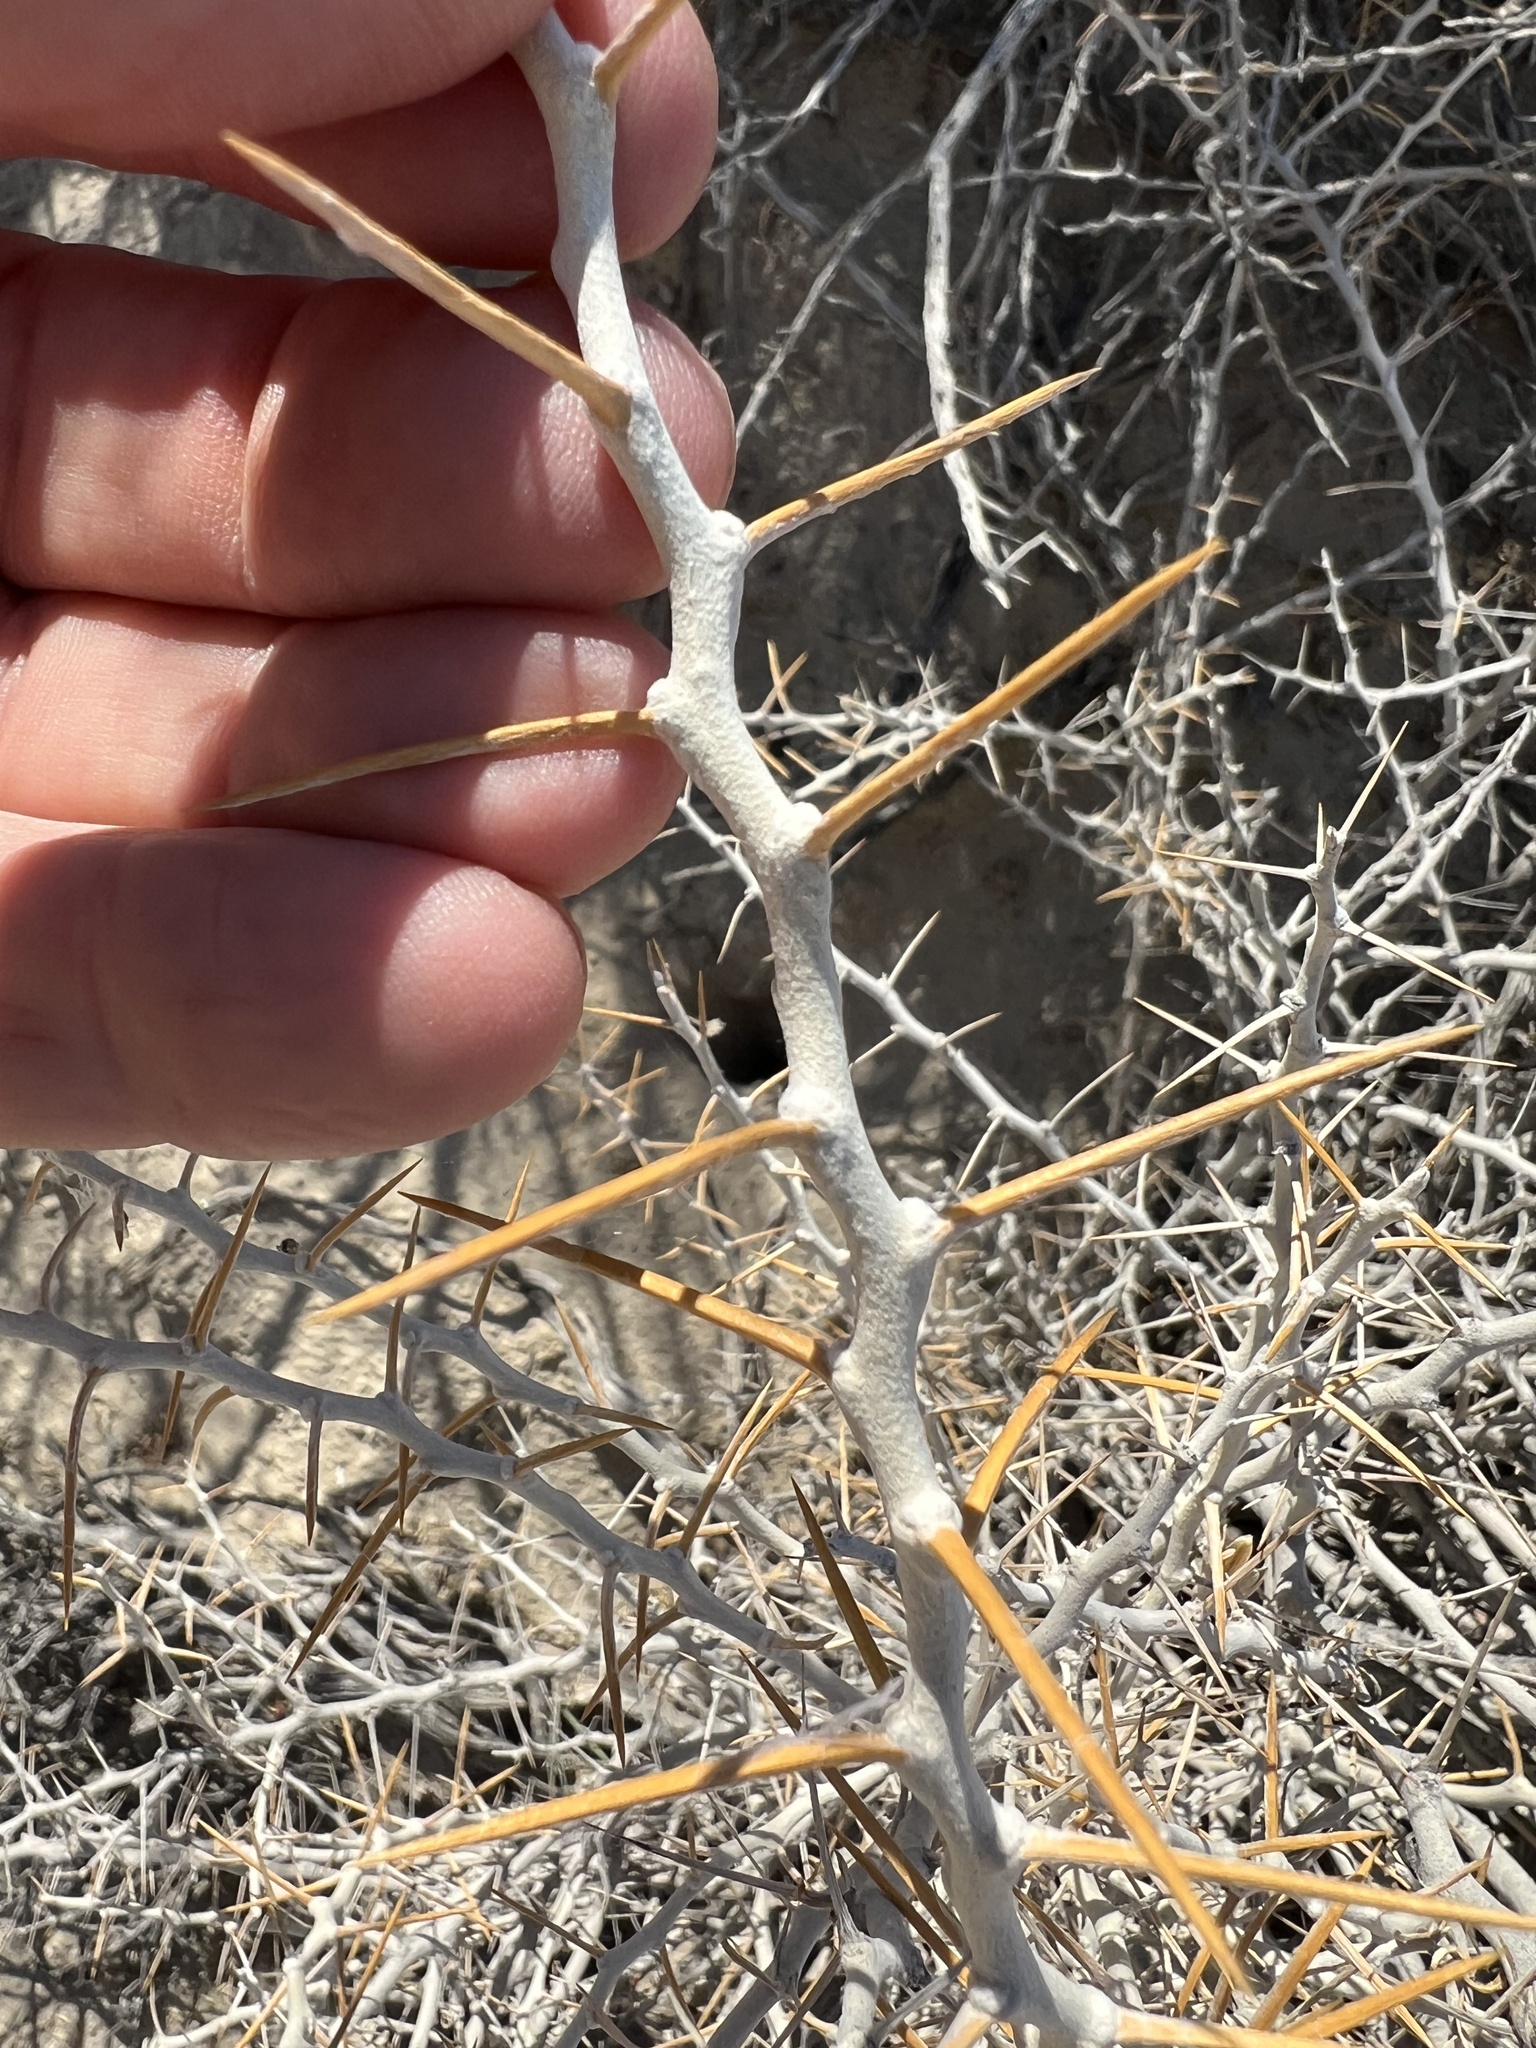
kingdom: Plantae
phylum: Tracheophyta
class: Magnoliopsida
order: Asterales
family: Asteraceae
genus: Tetradymia
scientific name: Tetradymia axillaris
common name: Long-spine horsebrush
